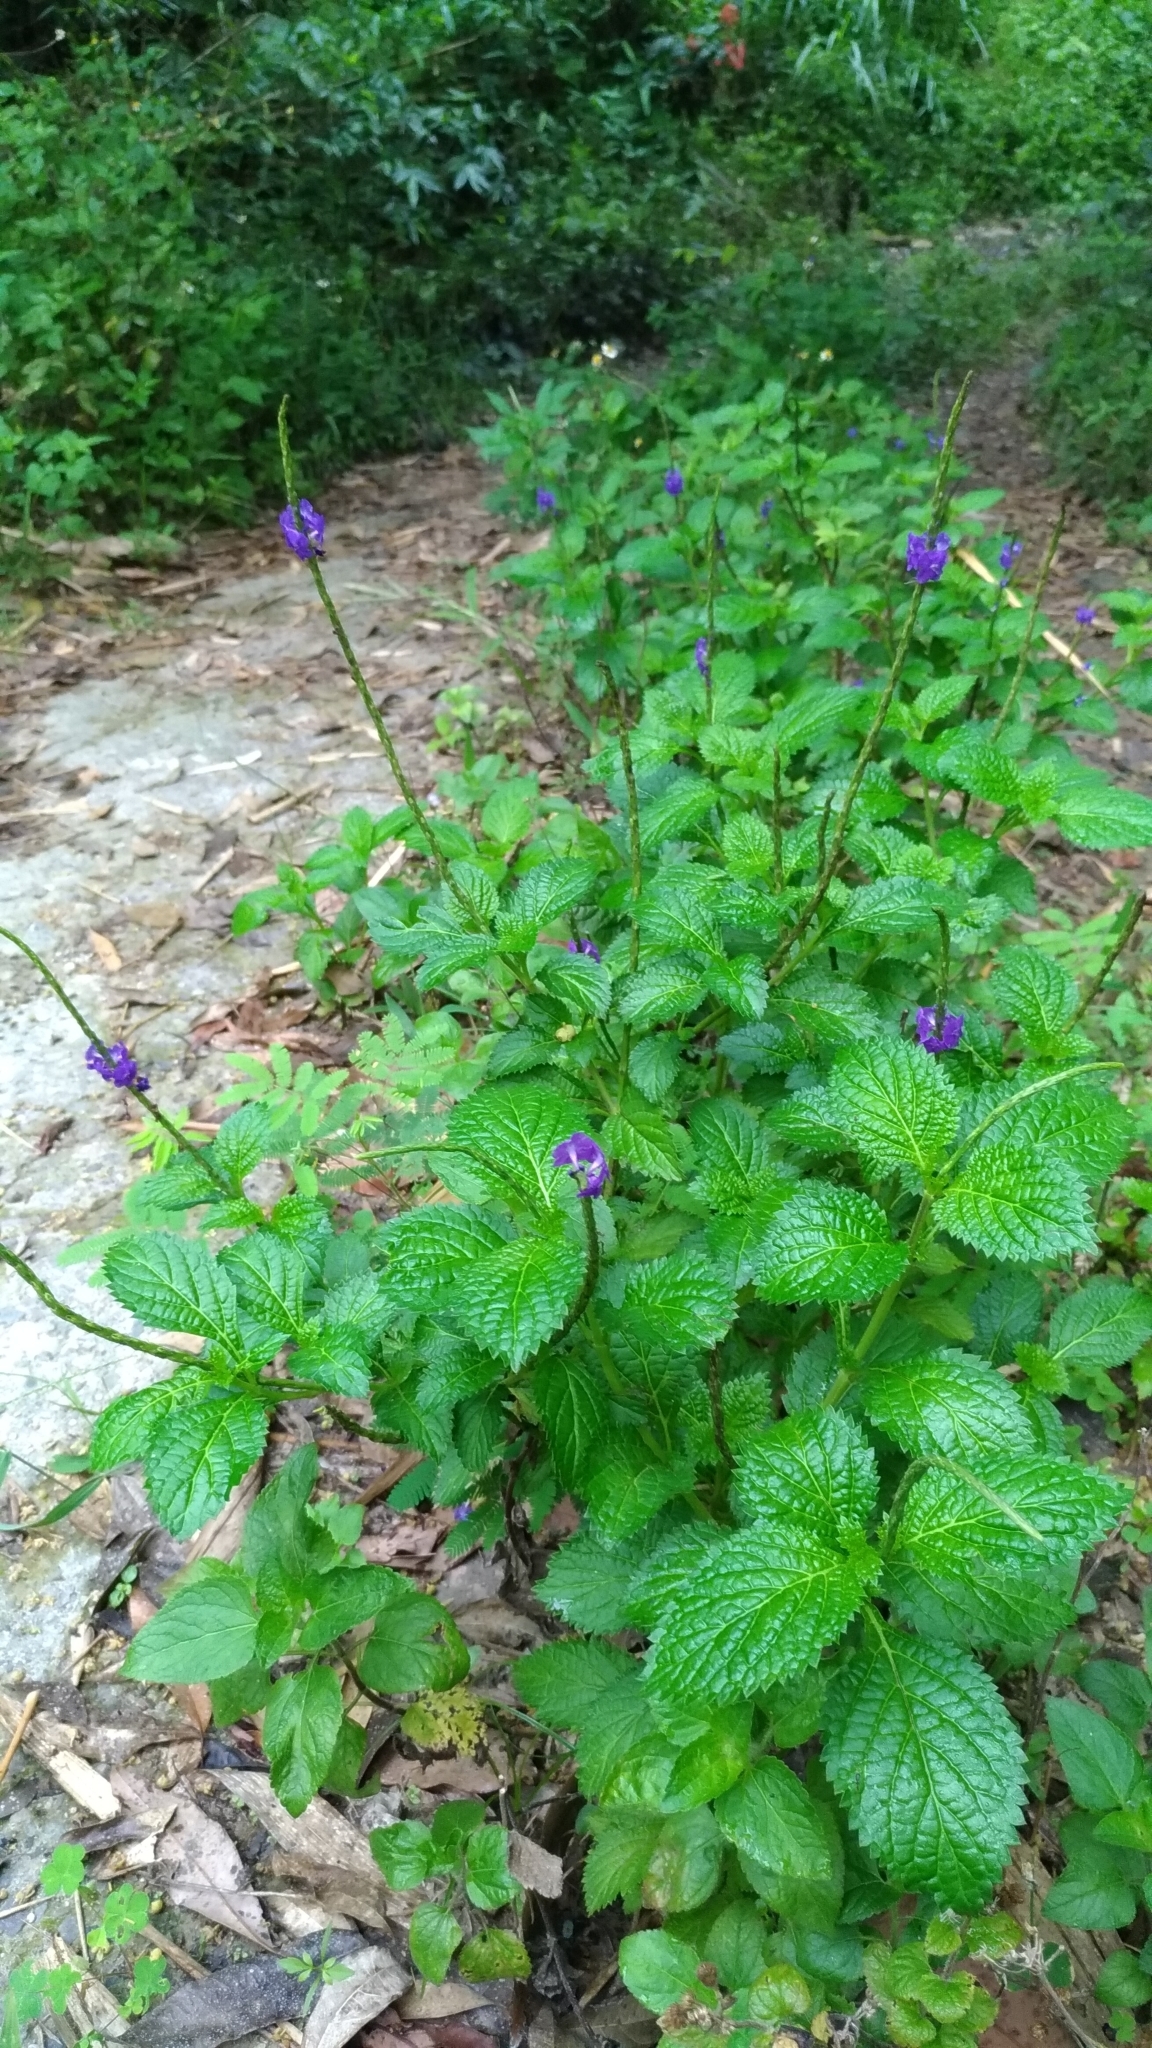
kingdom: Plantae
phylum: Tracheophyta
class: Magnoliopsida
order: Lamiales
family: Verbenaceae
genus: Stachytarpheta
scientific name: Stachytarpheta urticifolia
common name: Nettleleaf velvetberry
